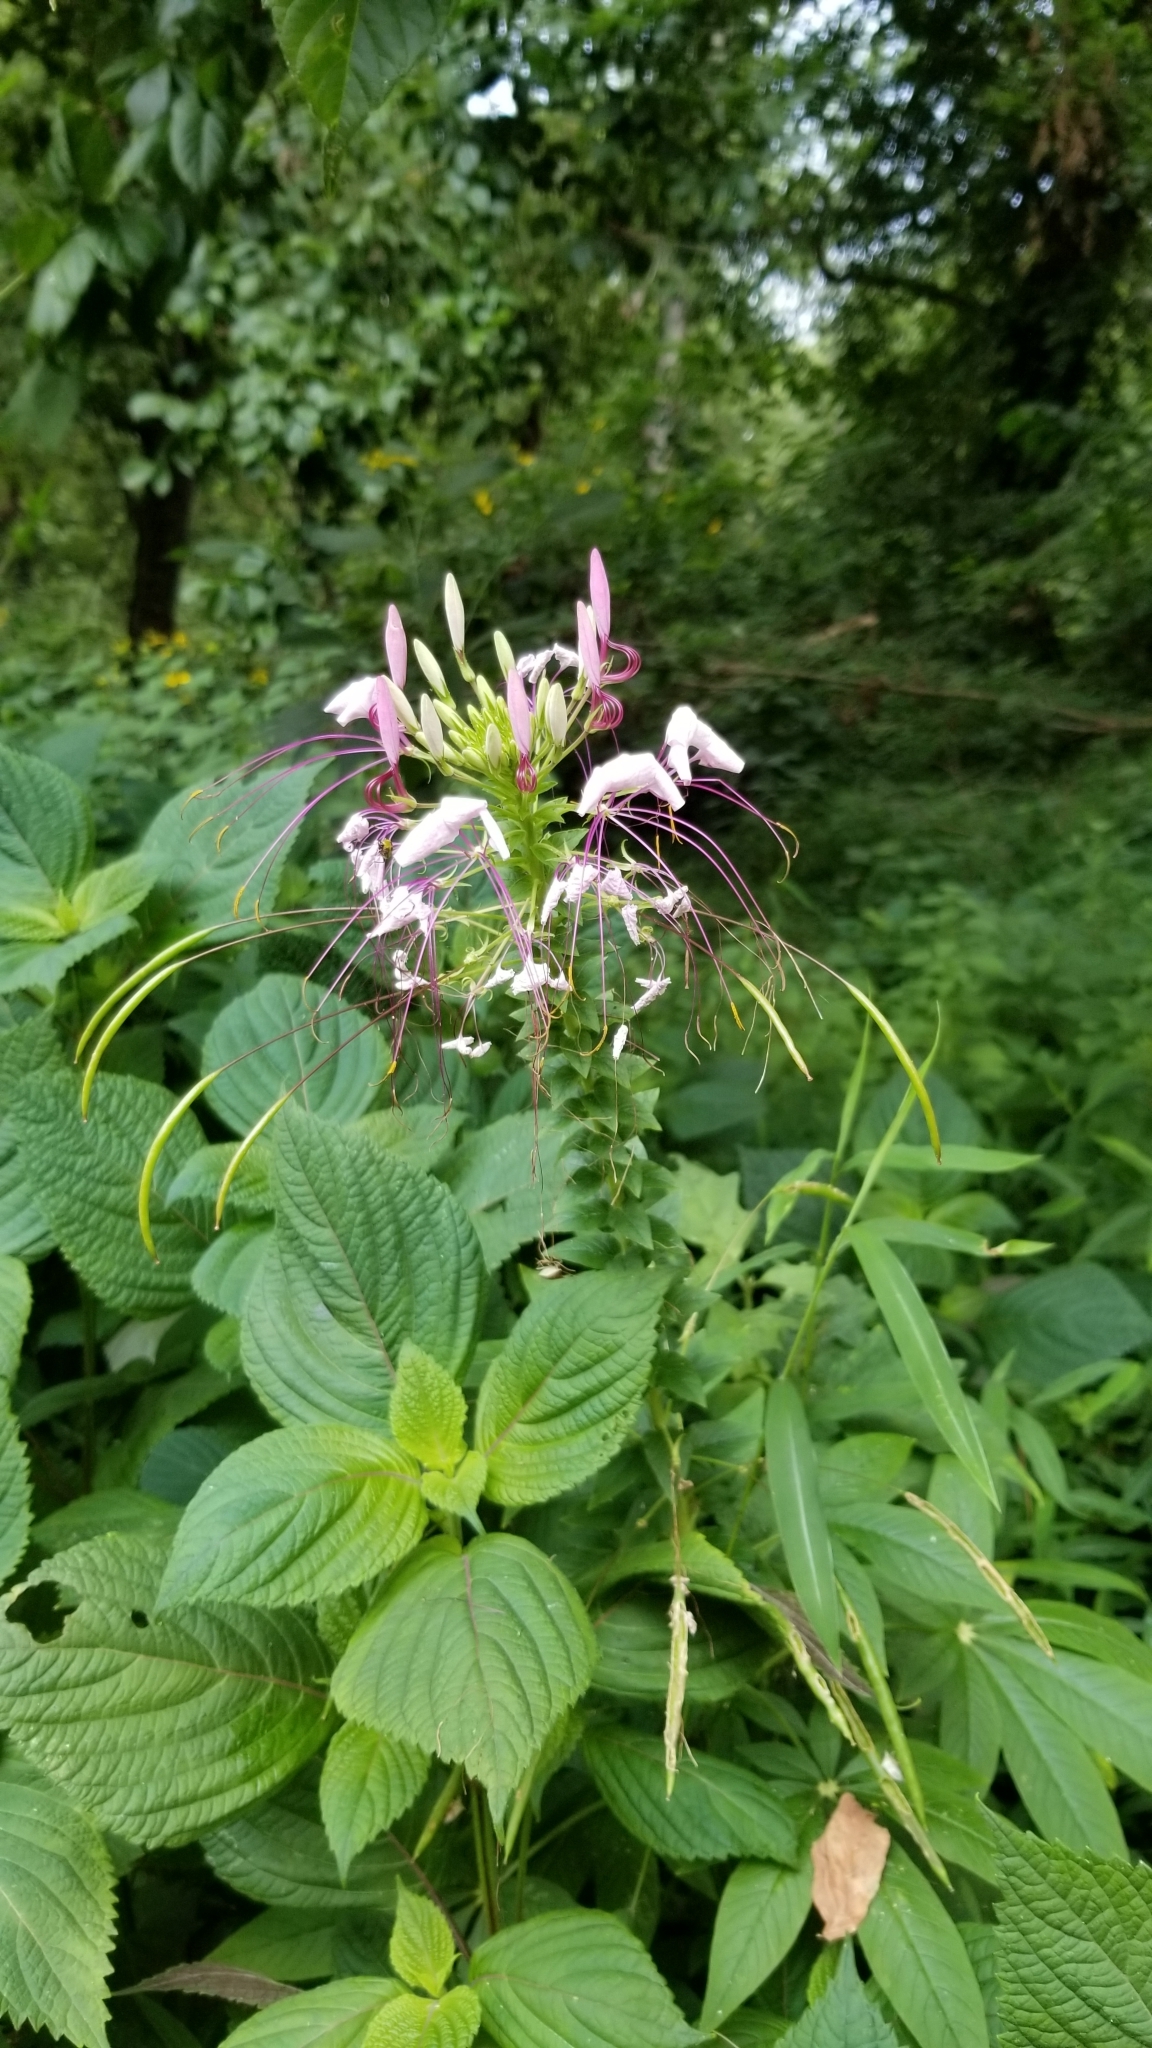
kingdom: Plantae
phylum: Tracheophyta
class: Magnoliopsida
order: Brassicales
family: Cleomaceae
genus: Tarenaya
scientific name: Tarenaya houtteana
